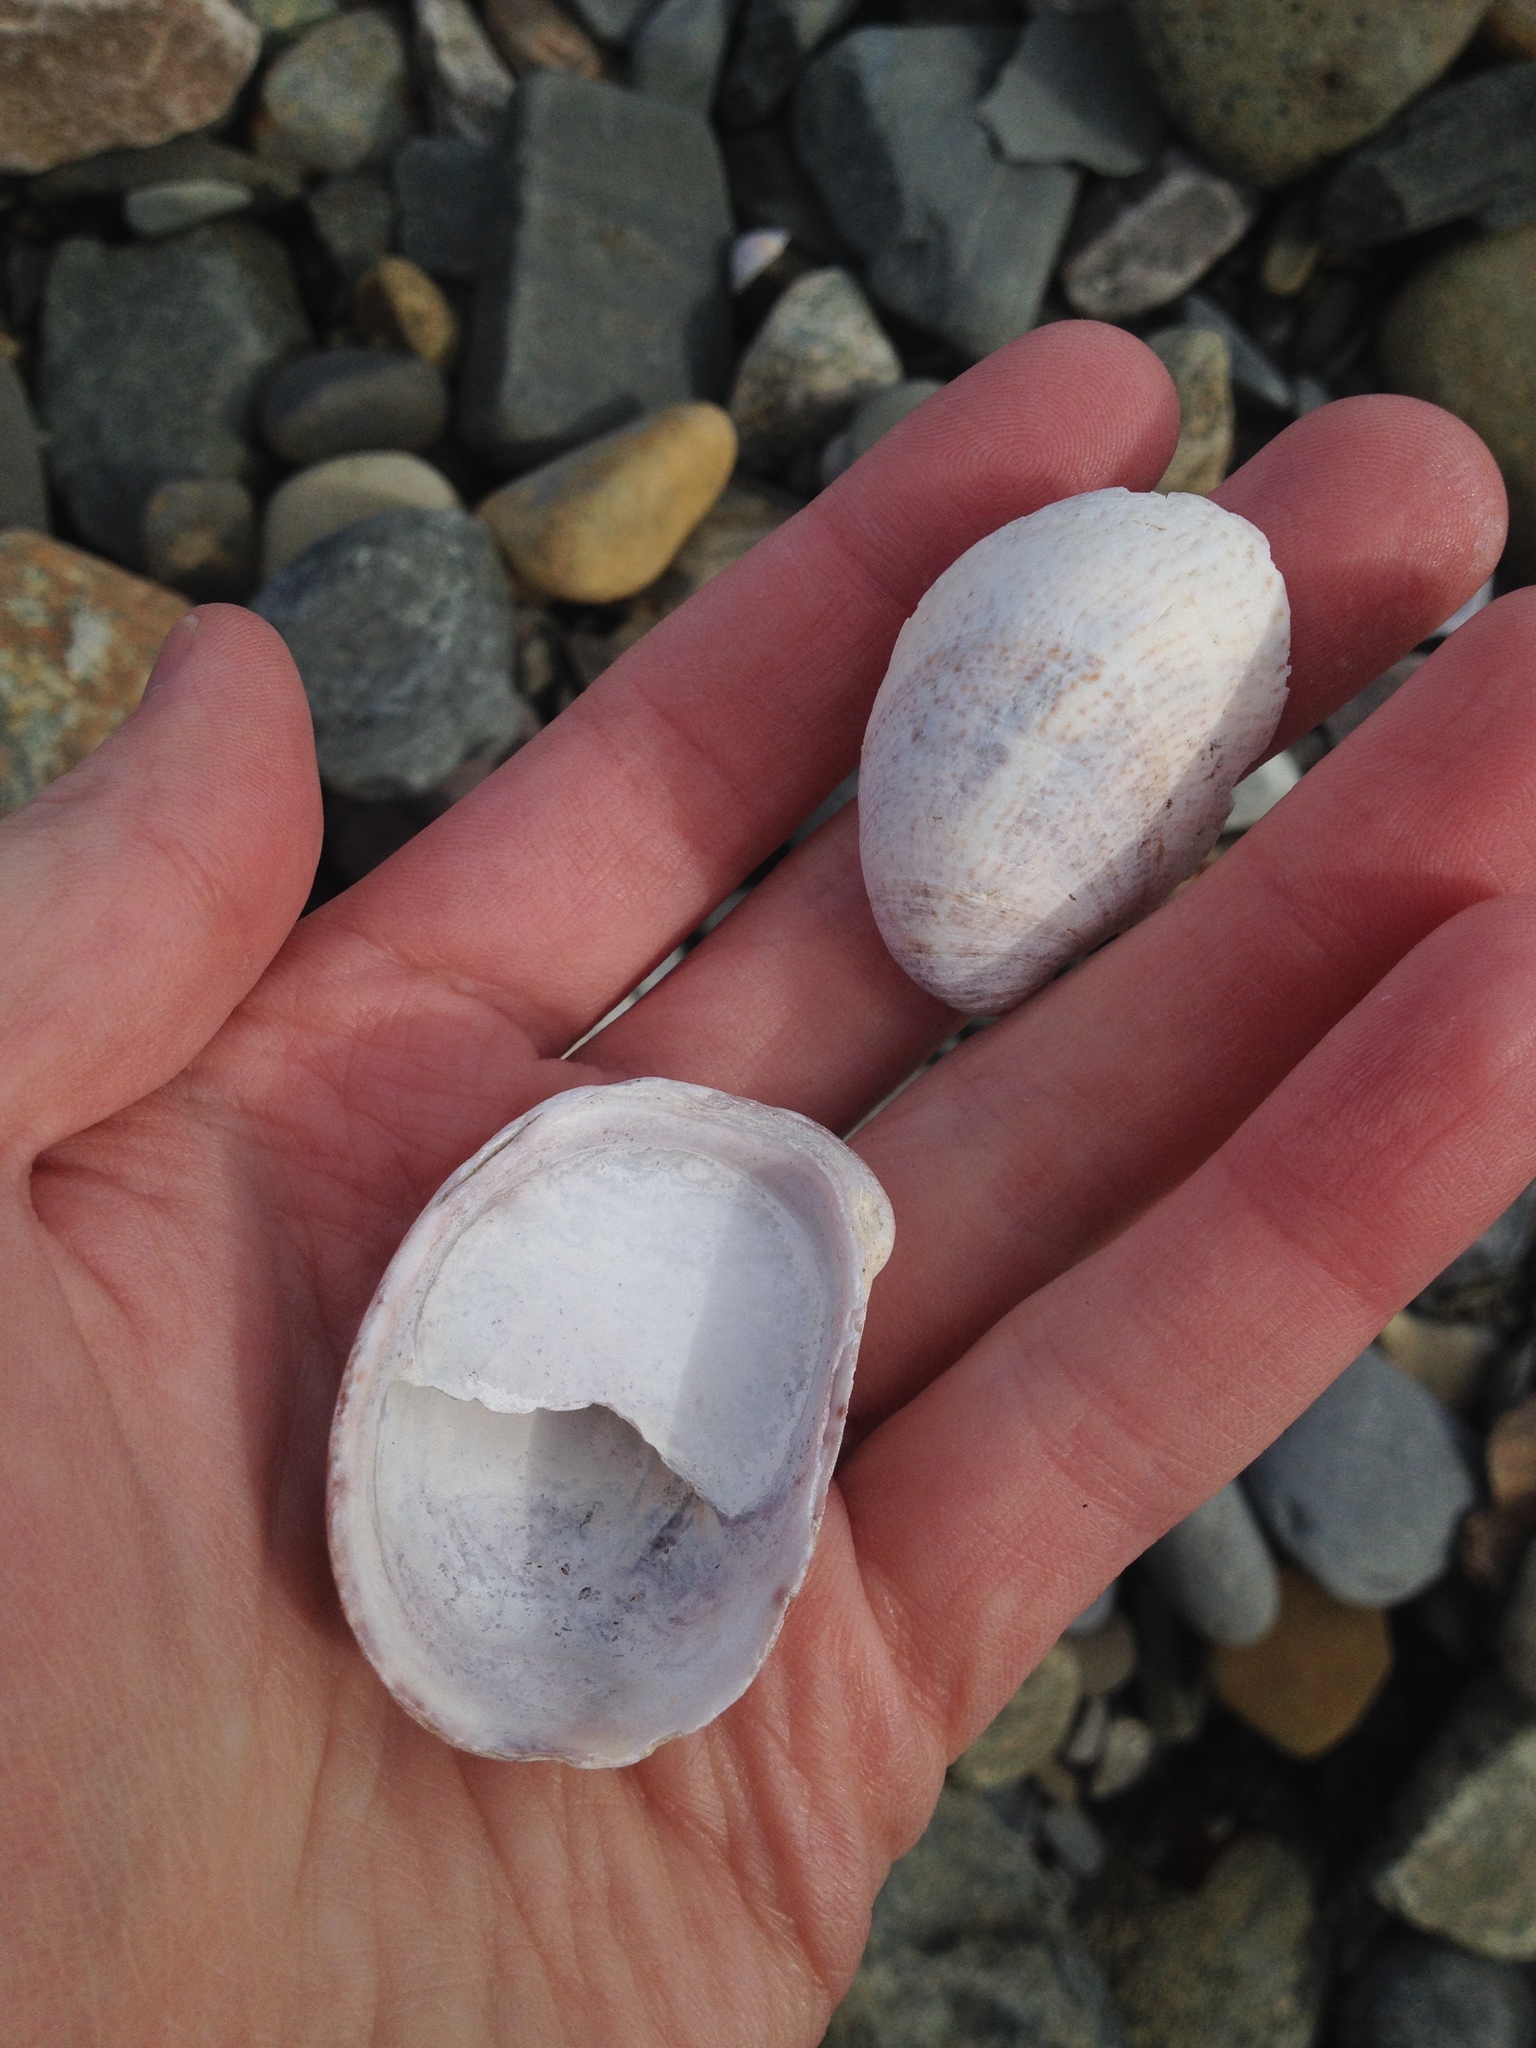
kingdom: Animalia
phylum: Mollusca
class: Gastropoda
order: Littorinimorpha
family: Calyptraeidae
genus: Crepidula
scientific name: Crepidula fornicata
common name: Slipper limpet
